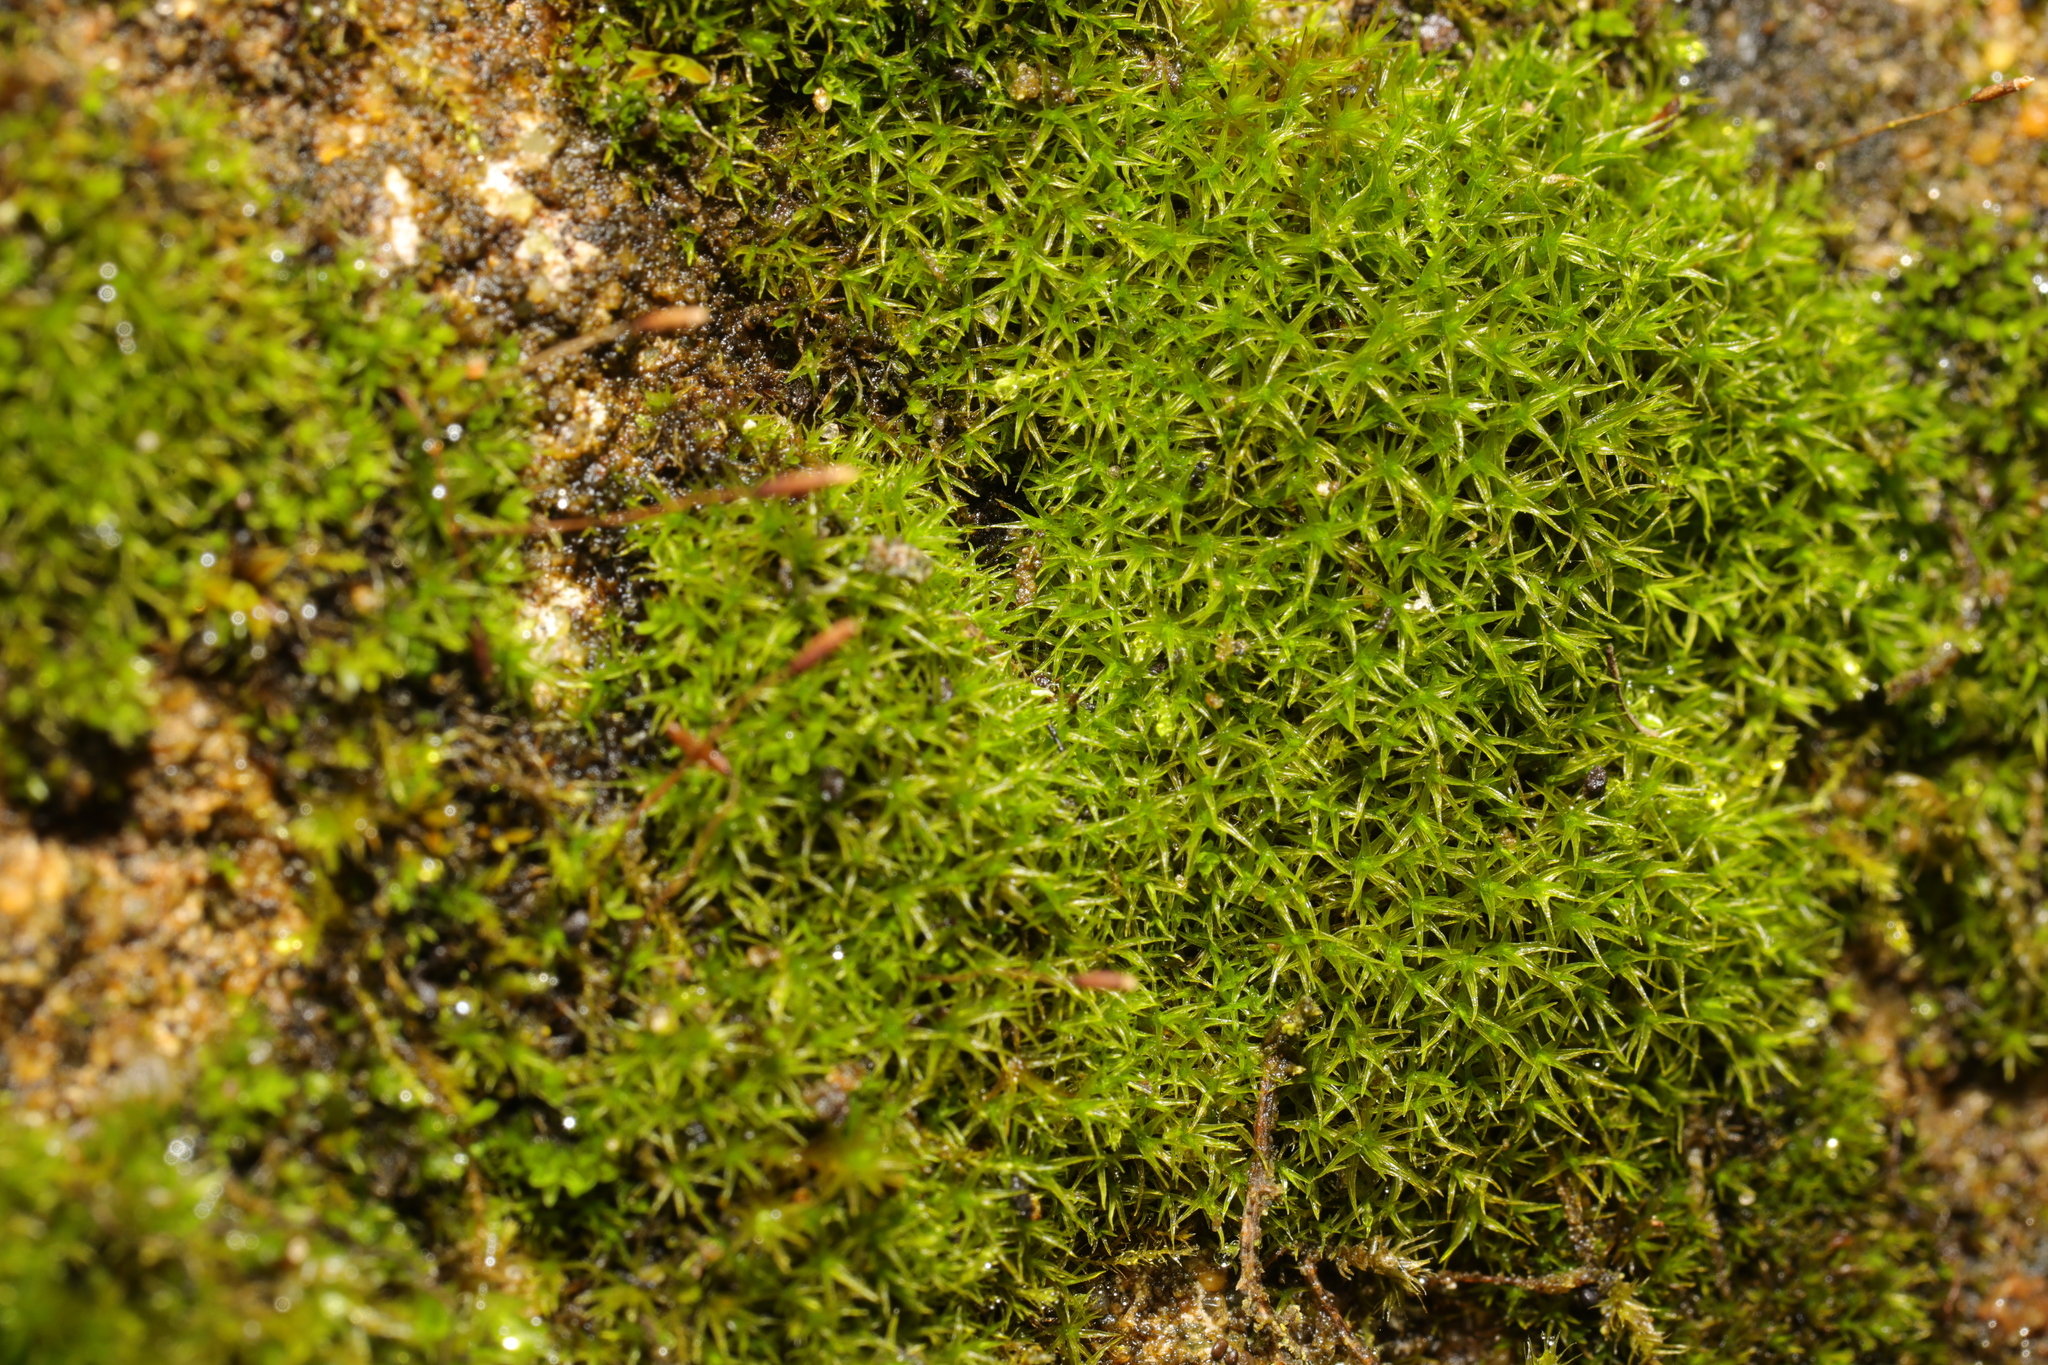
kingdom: Plantae
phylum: Bryophyta
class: Bryopsida
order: Pottiales
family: Pottiaceae
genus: Tortula
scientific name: Tortula muralis
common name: Wall screw-moss
